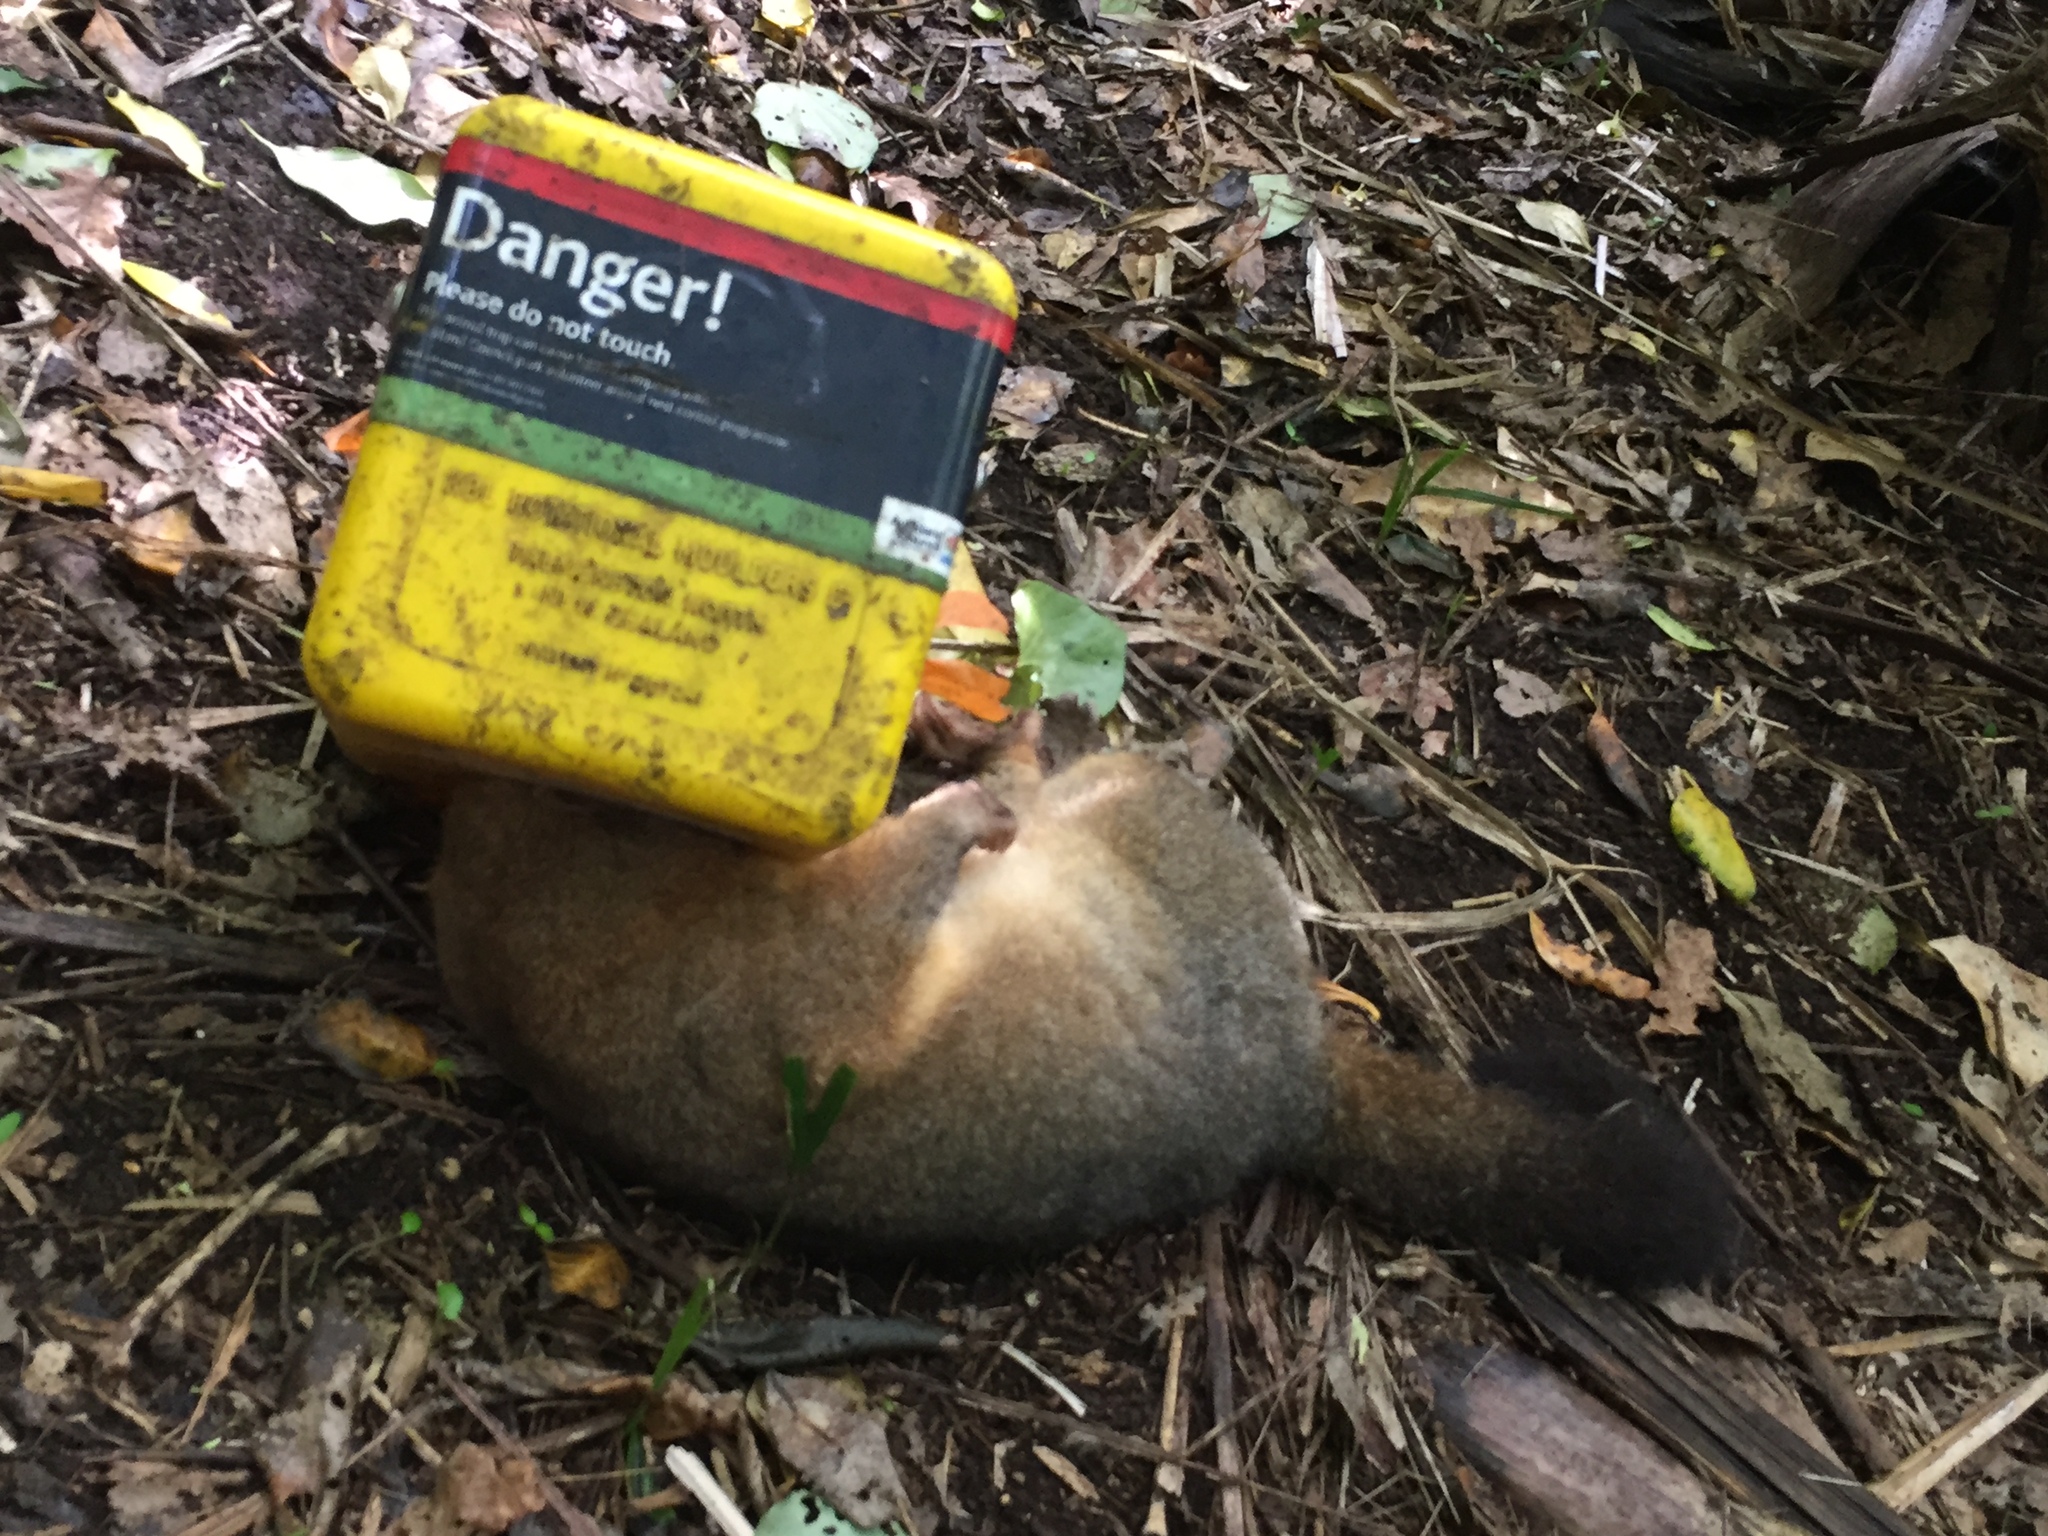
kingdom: Animalia
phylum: Chordata
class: Mammalia
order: Diprotodontia
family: Phalangeridae
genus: Trichosurus
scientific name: Trichosurus vulpecula
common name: Common brushtail
